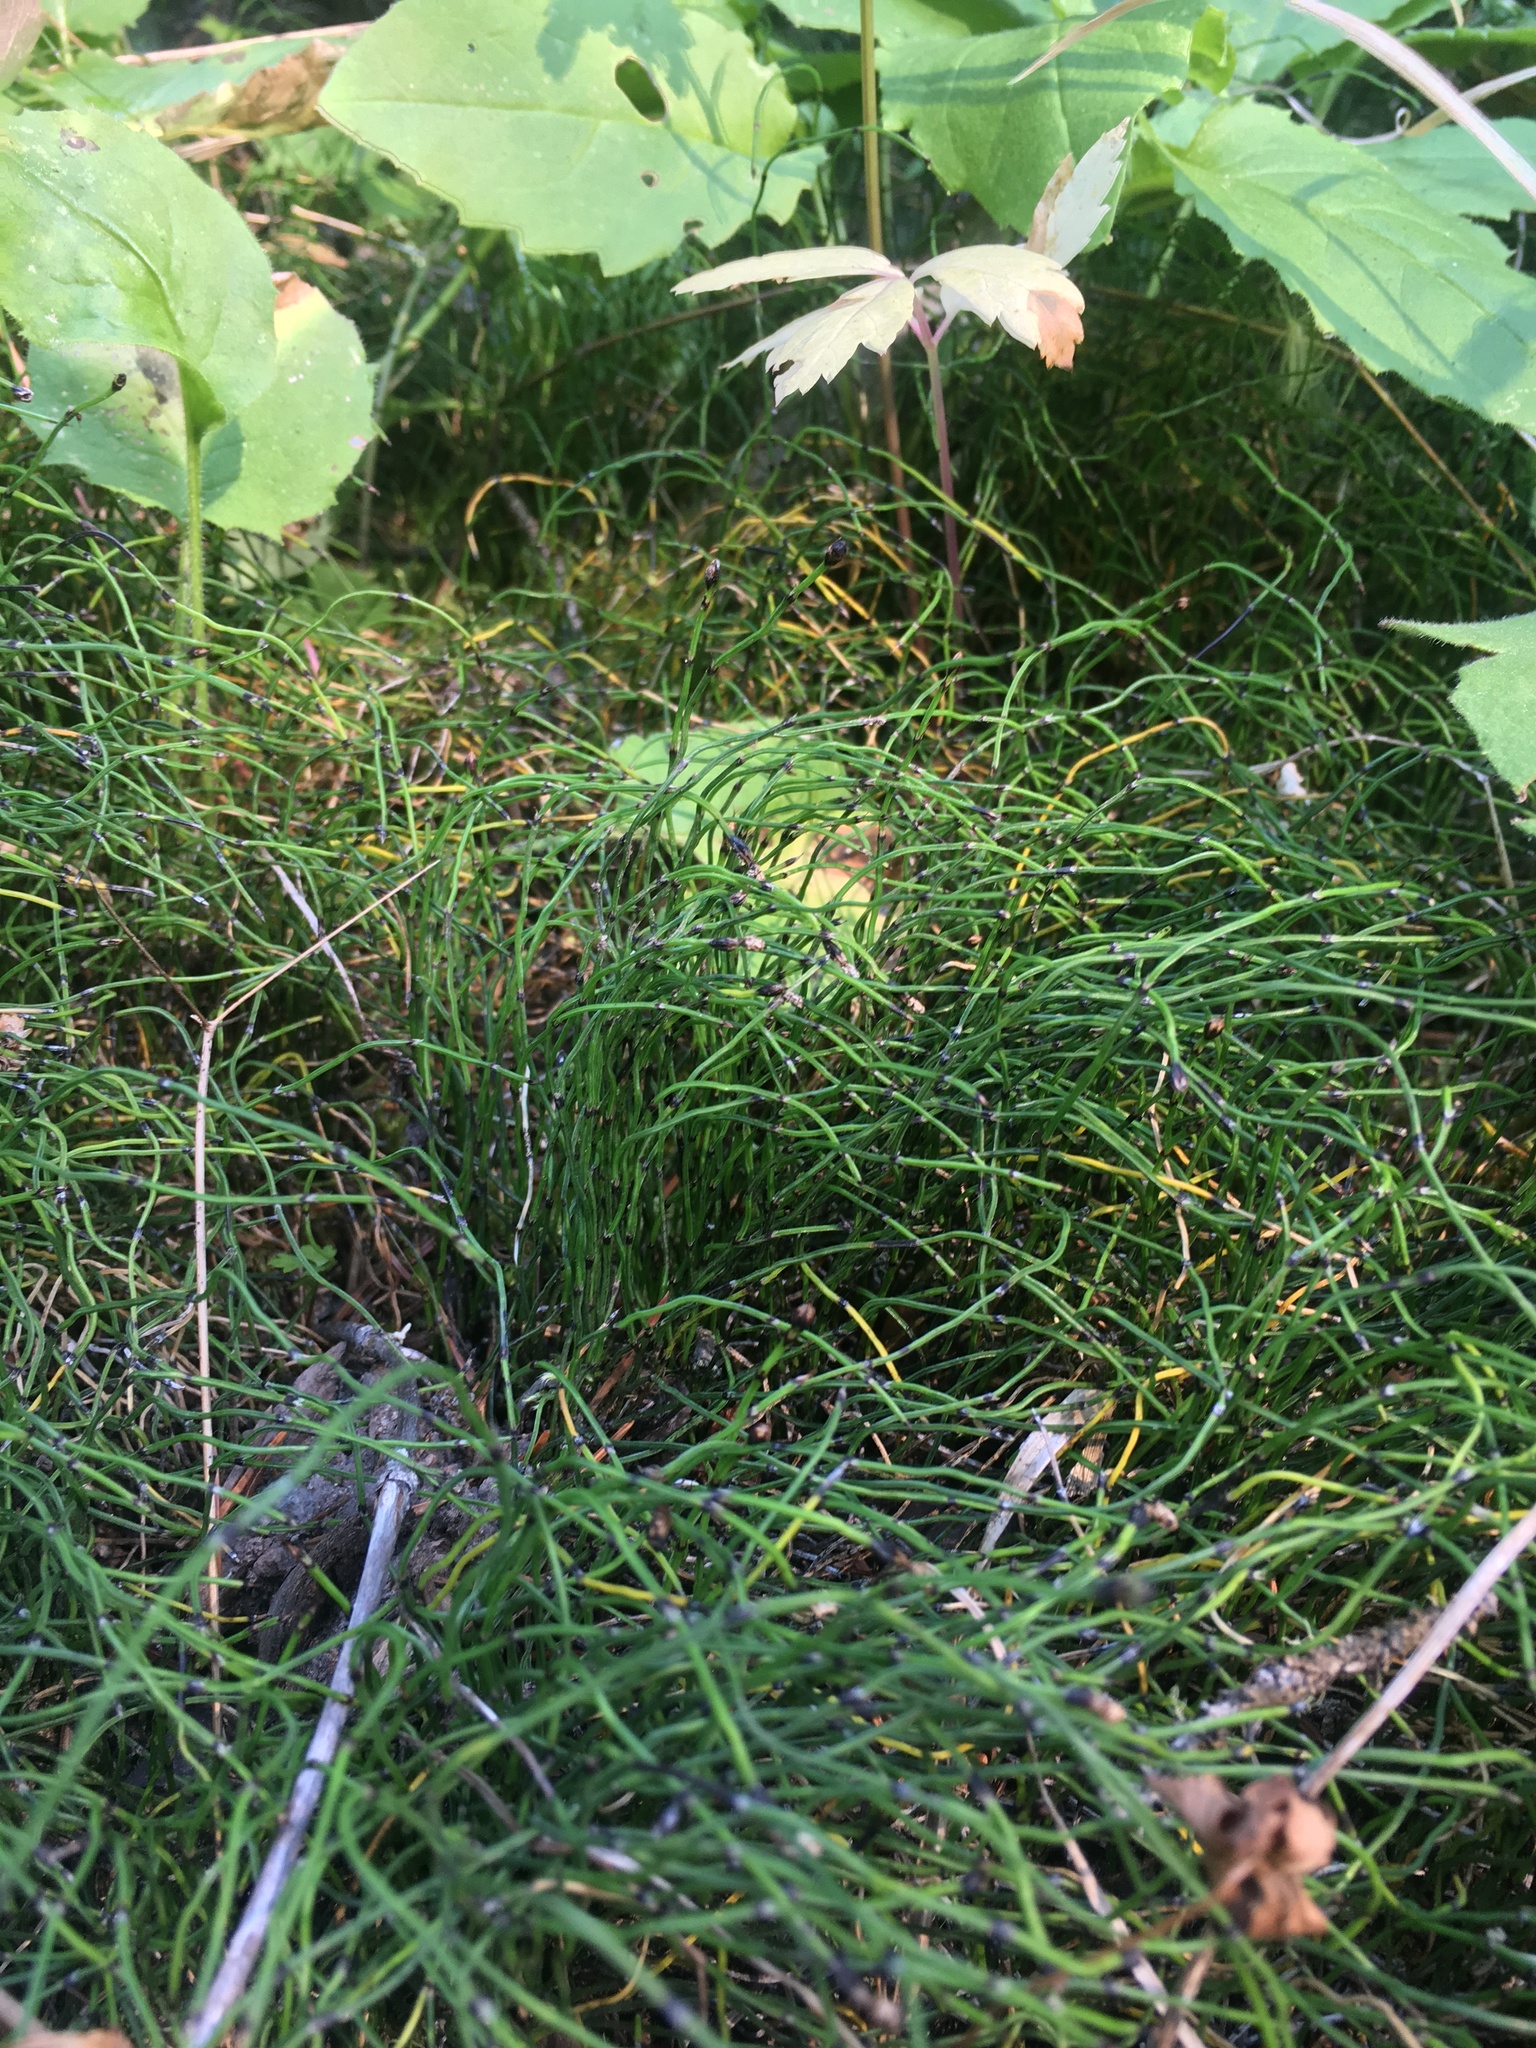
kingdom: Plantae
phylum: Tracheophyta
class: Polypodiopsida
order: Equisetales
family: Equisetaceae
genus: Equisetum
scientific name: Equisetum scirpoides
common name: Delicate horsetail
